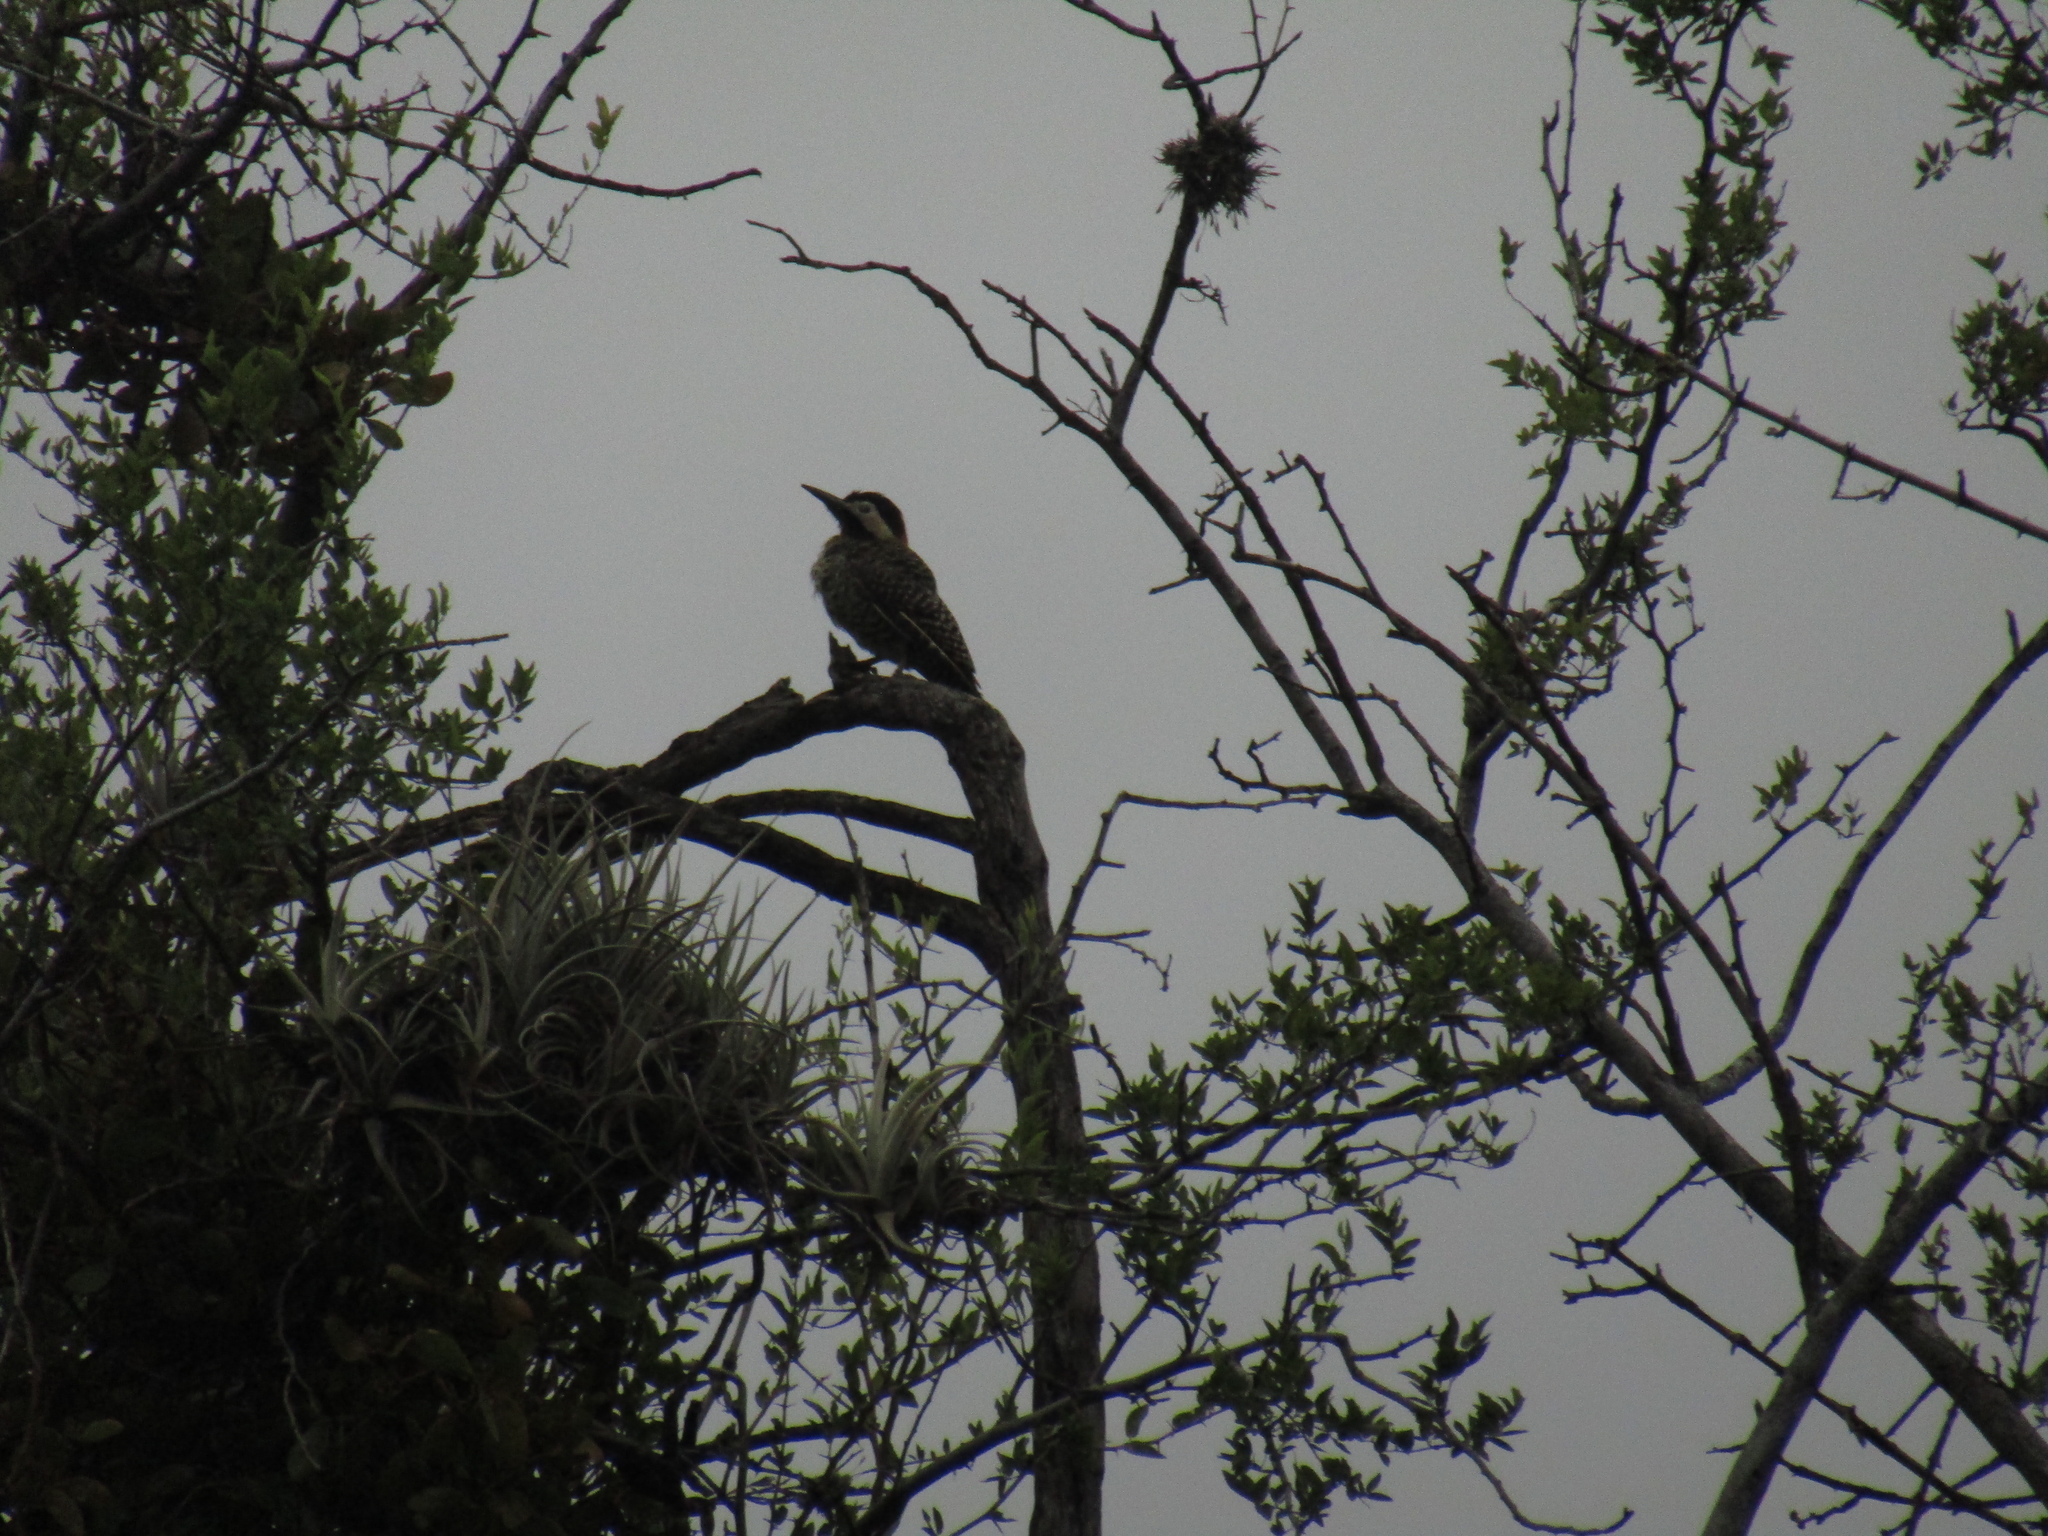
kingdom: Animalia
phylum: Chordata
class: Aves
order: Piciformes
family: Picidae
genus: Colaptes
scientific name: Colaptes melanochloros
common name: Green-barred woodpecker
